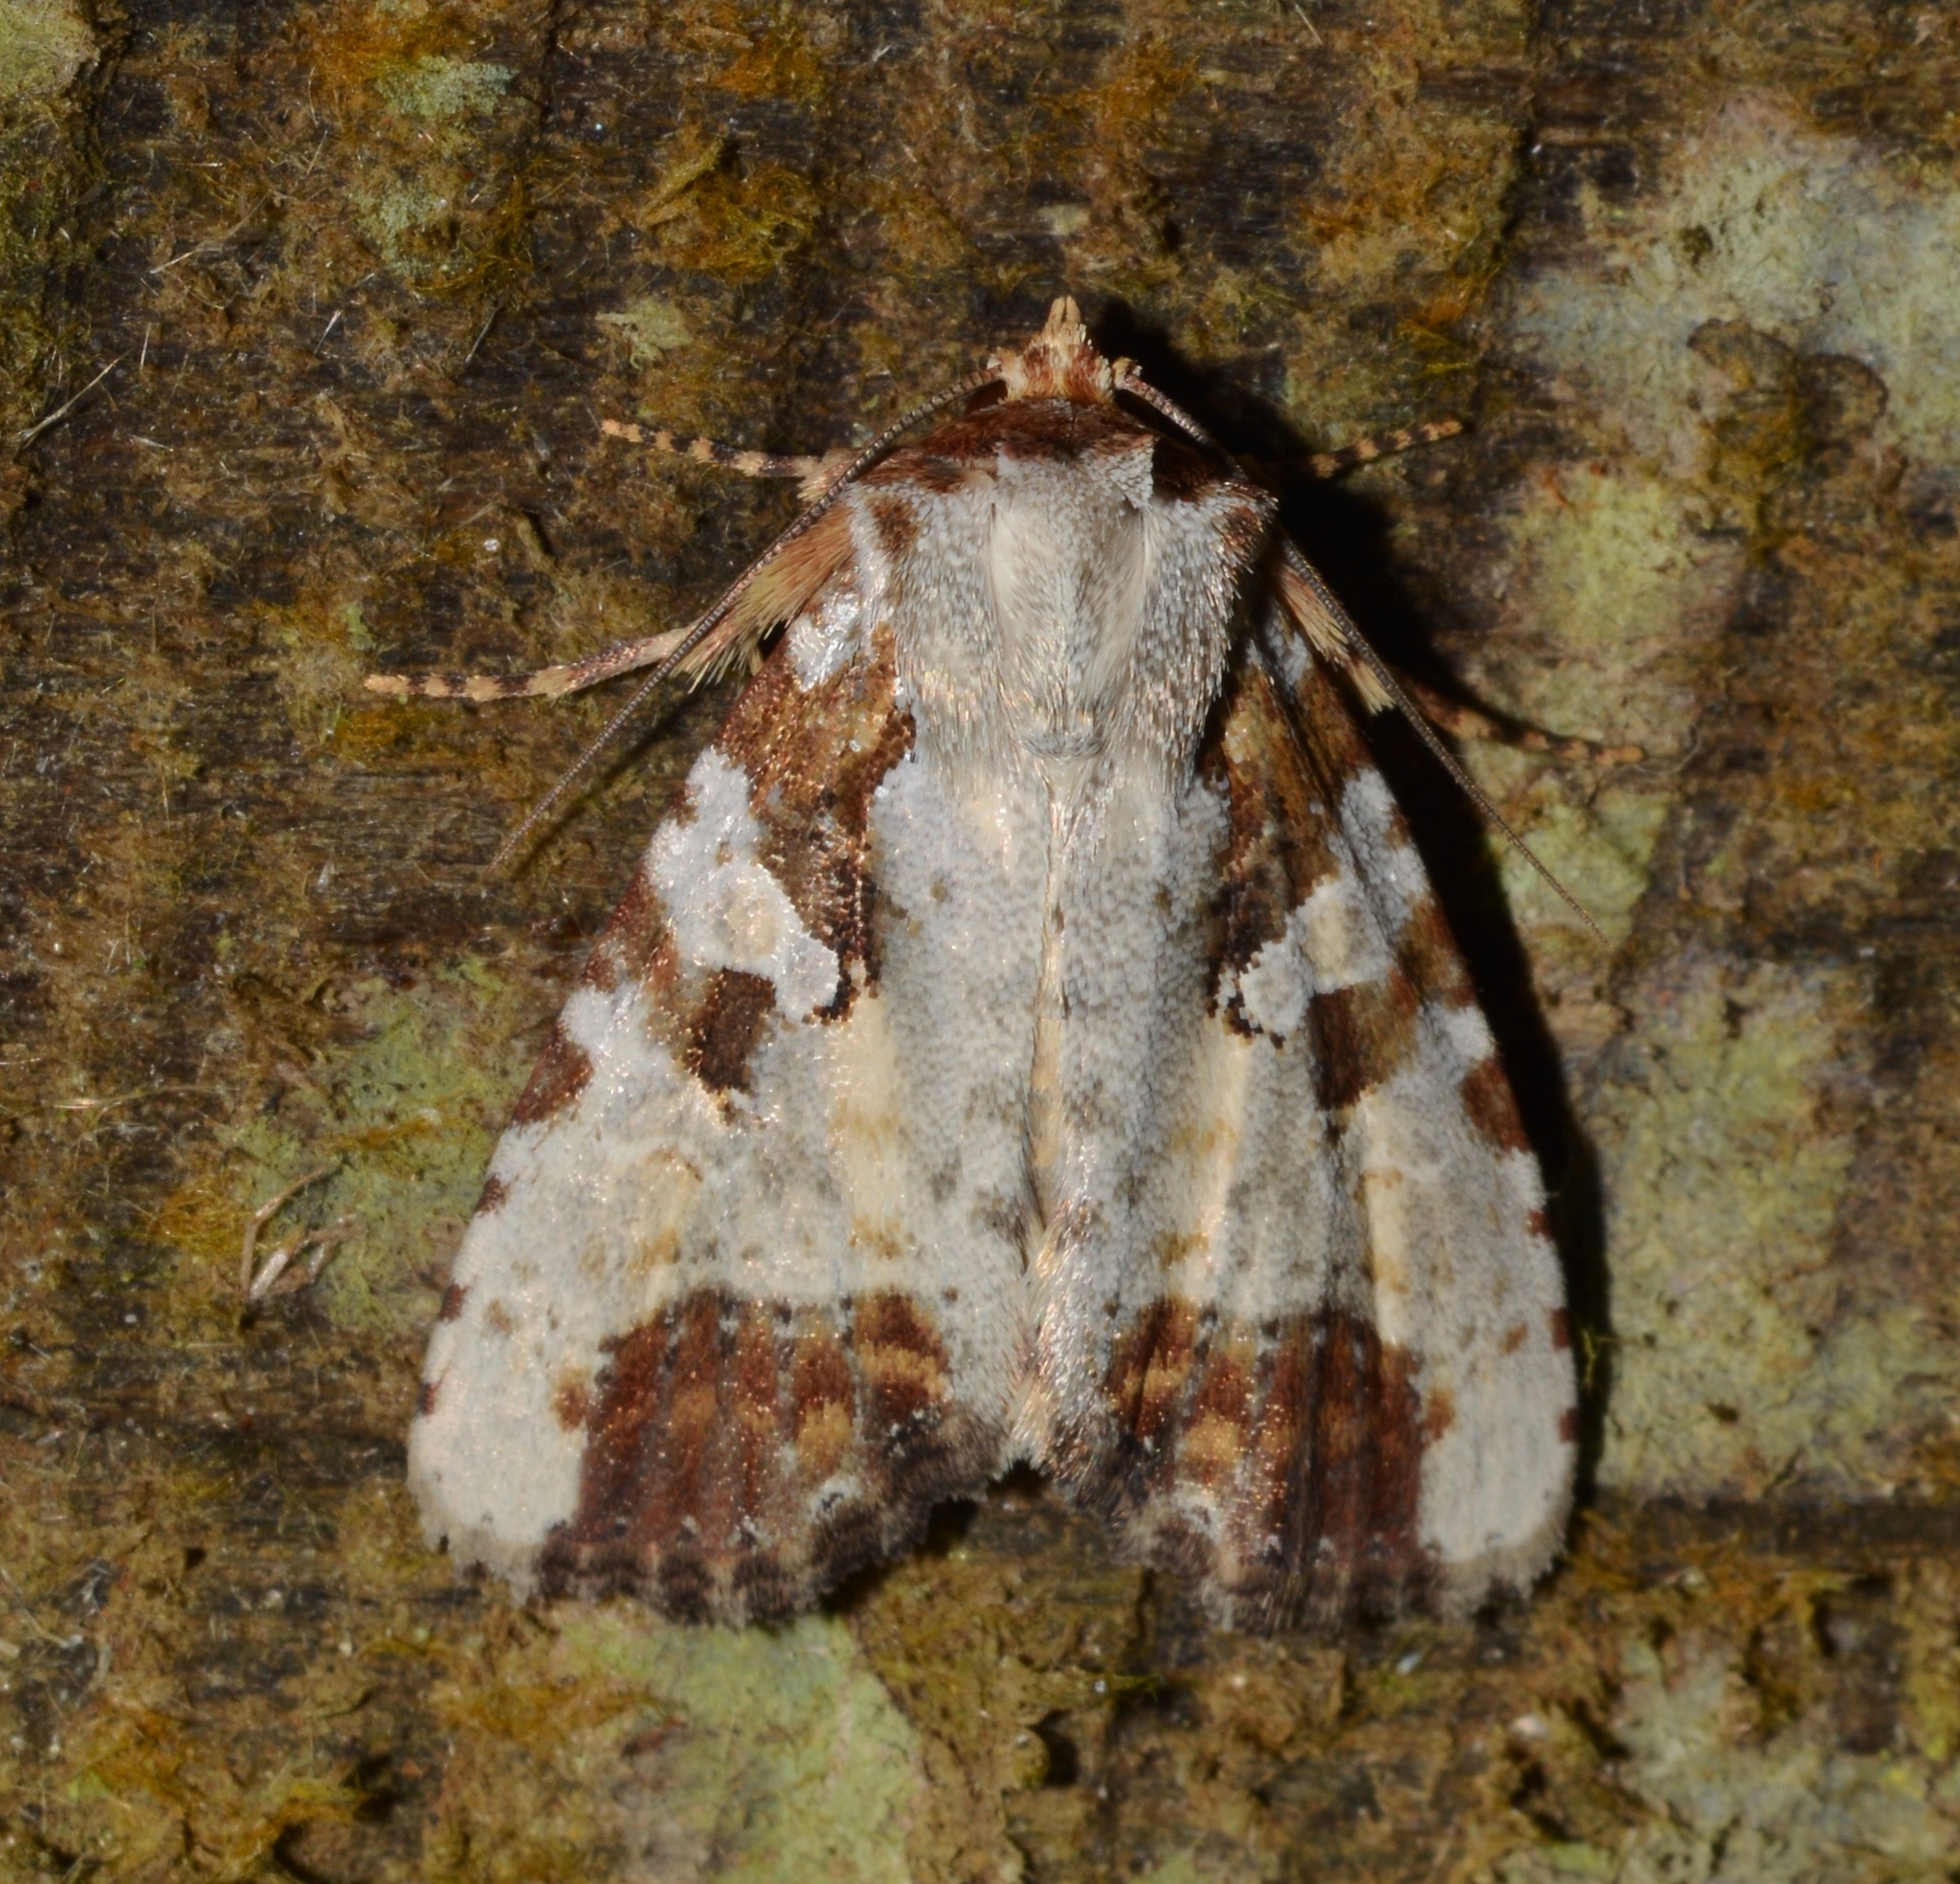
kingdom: Animalia
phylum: Arthropoda
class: Insecta
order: Lepidoptera
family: Noctuidae
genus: Condica
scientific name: Condica hippia
